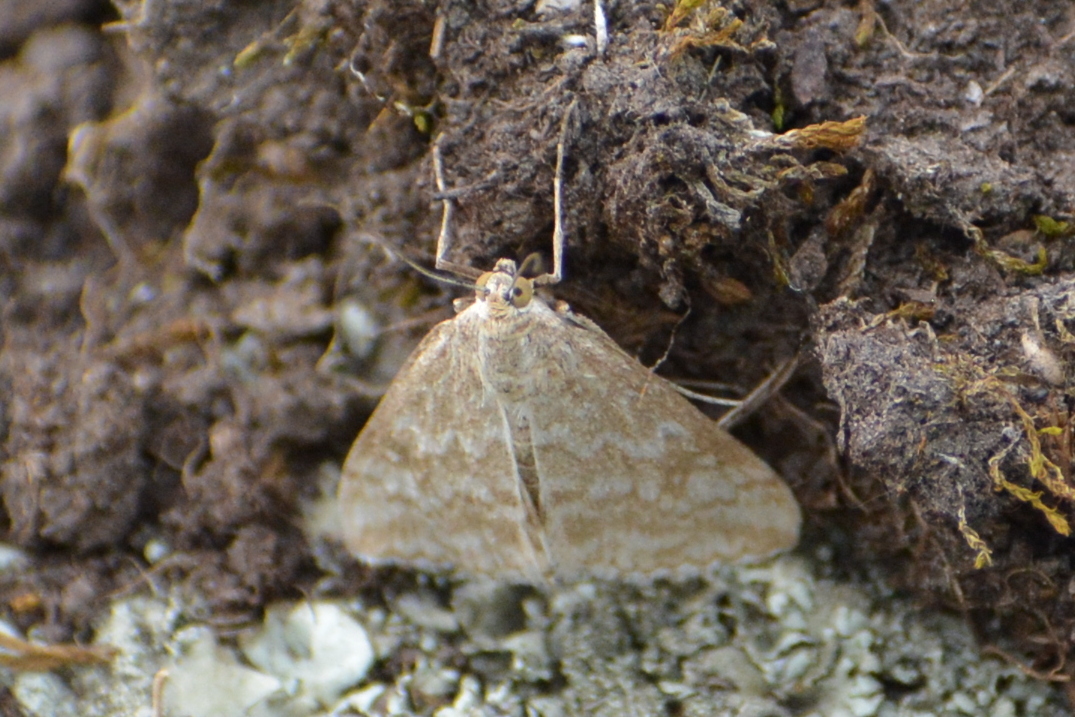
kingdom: Animalia
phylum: Arthropoda
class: Insecta
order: Lepidoptera
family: Crambidae
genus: Evergestis
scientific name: Evergestis frumentalis
